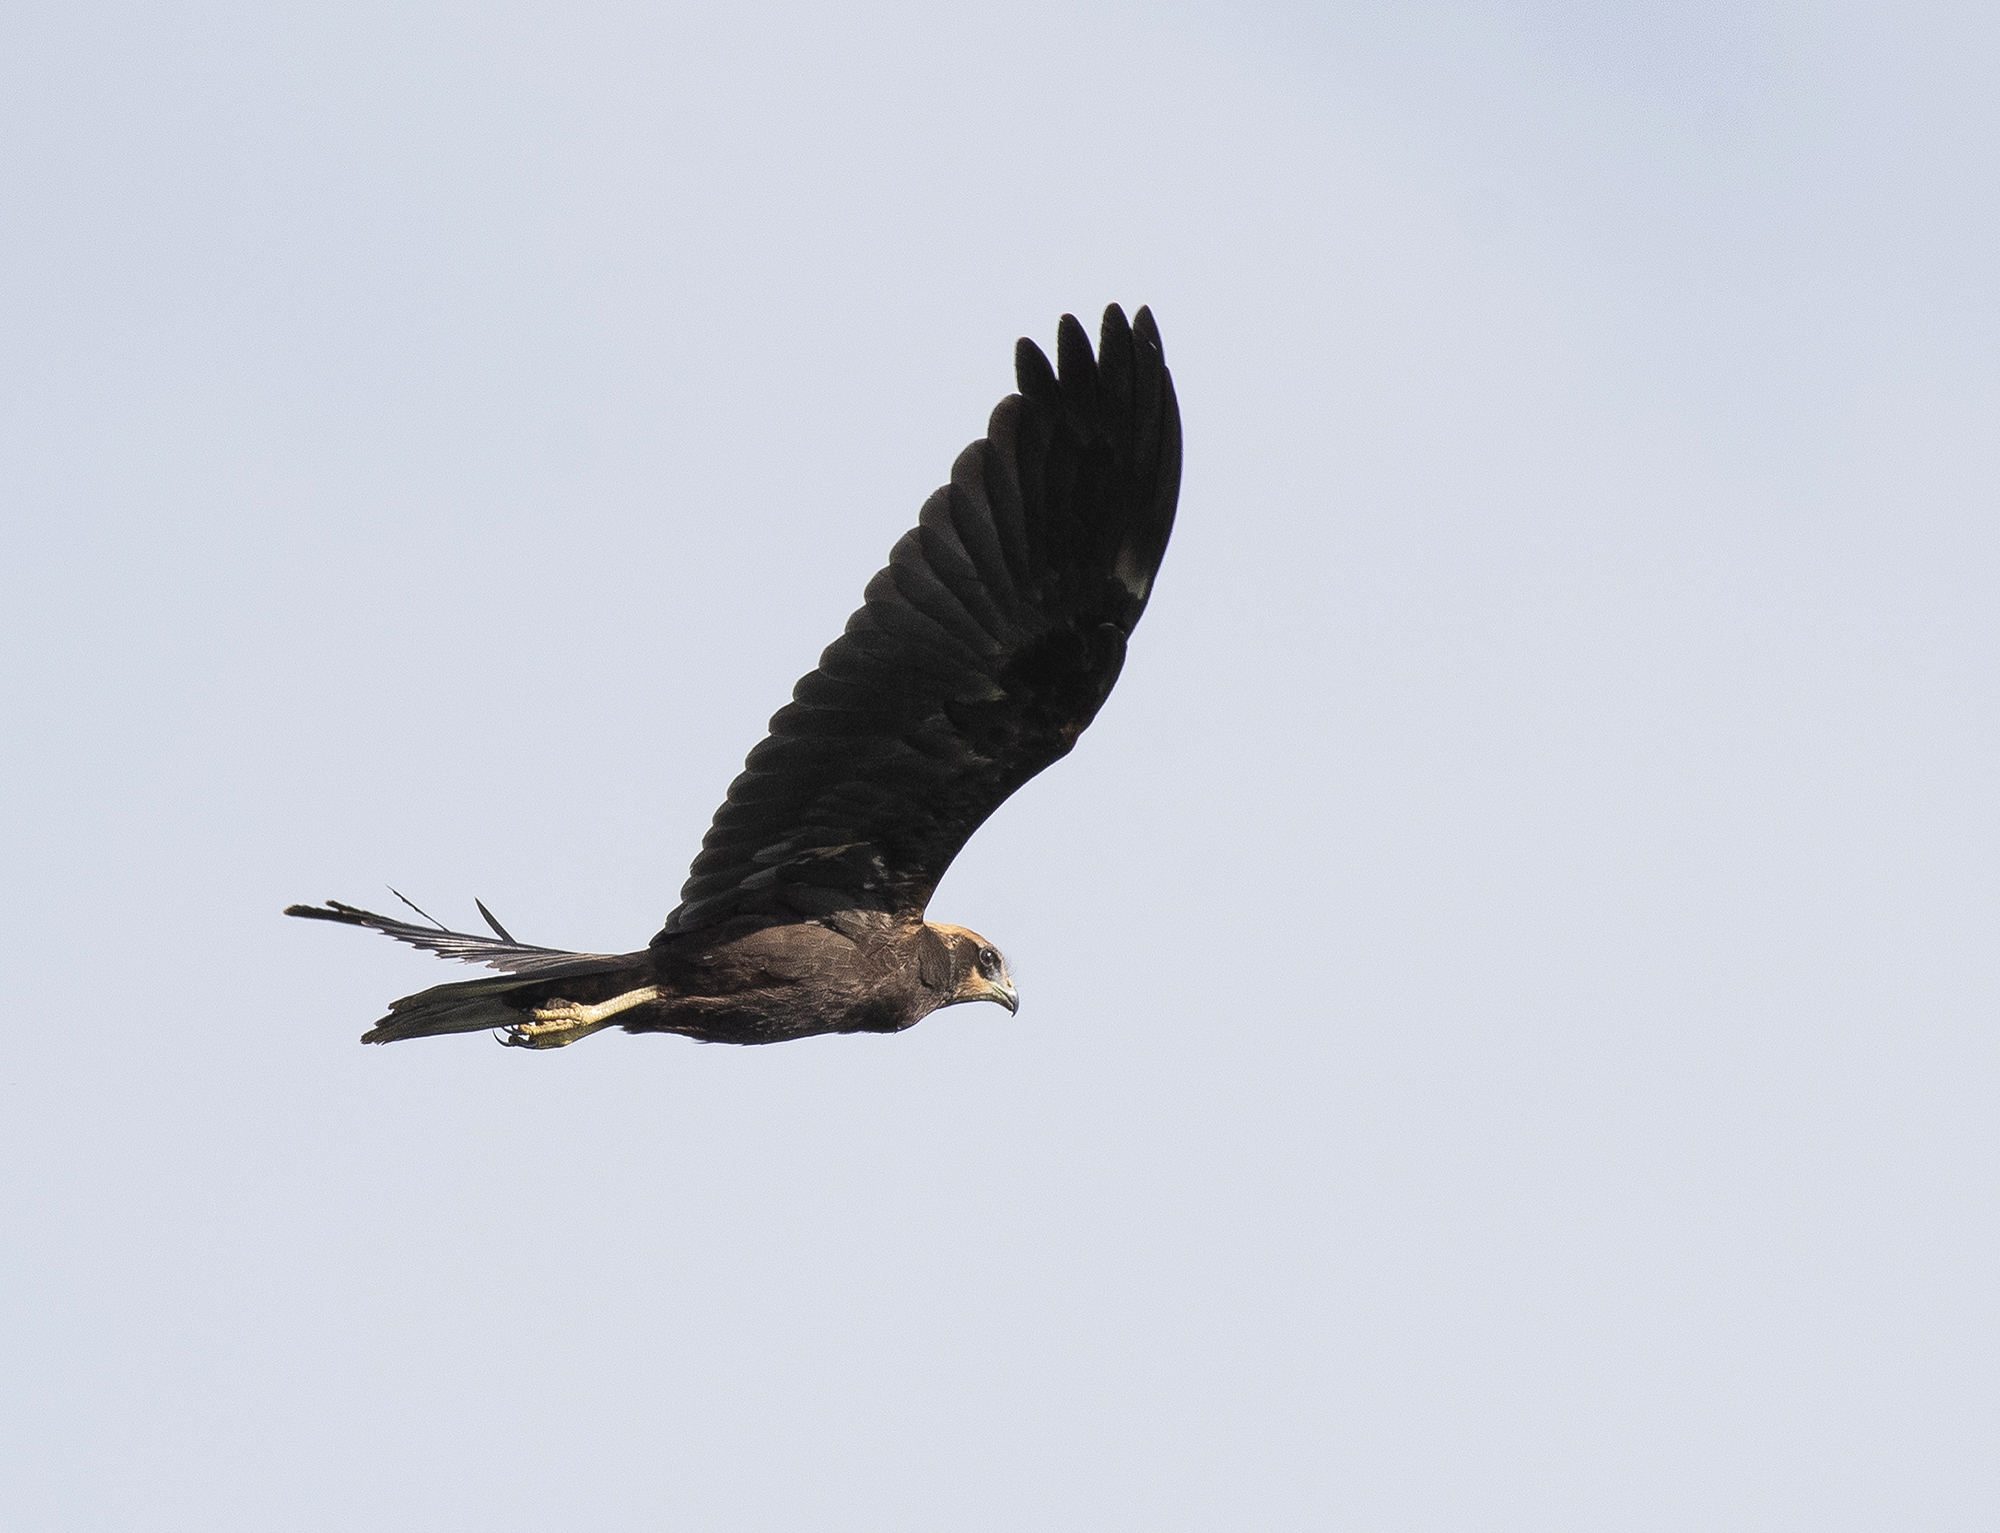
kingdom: Animalia
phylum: Chordata
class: Aves
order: Accipitriformes
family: Accipitridae
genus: Circus
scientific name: Circus aeruginosus
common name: Western marsh harrier
